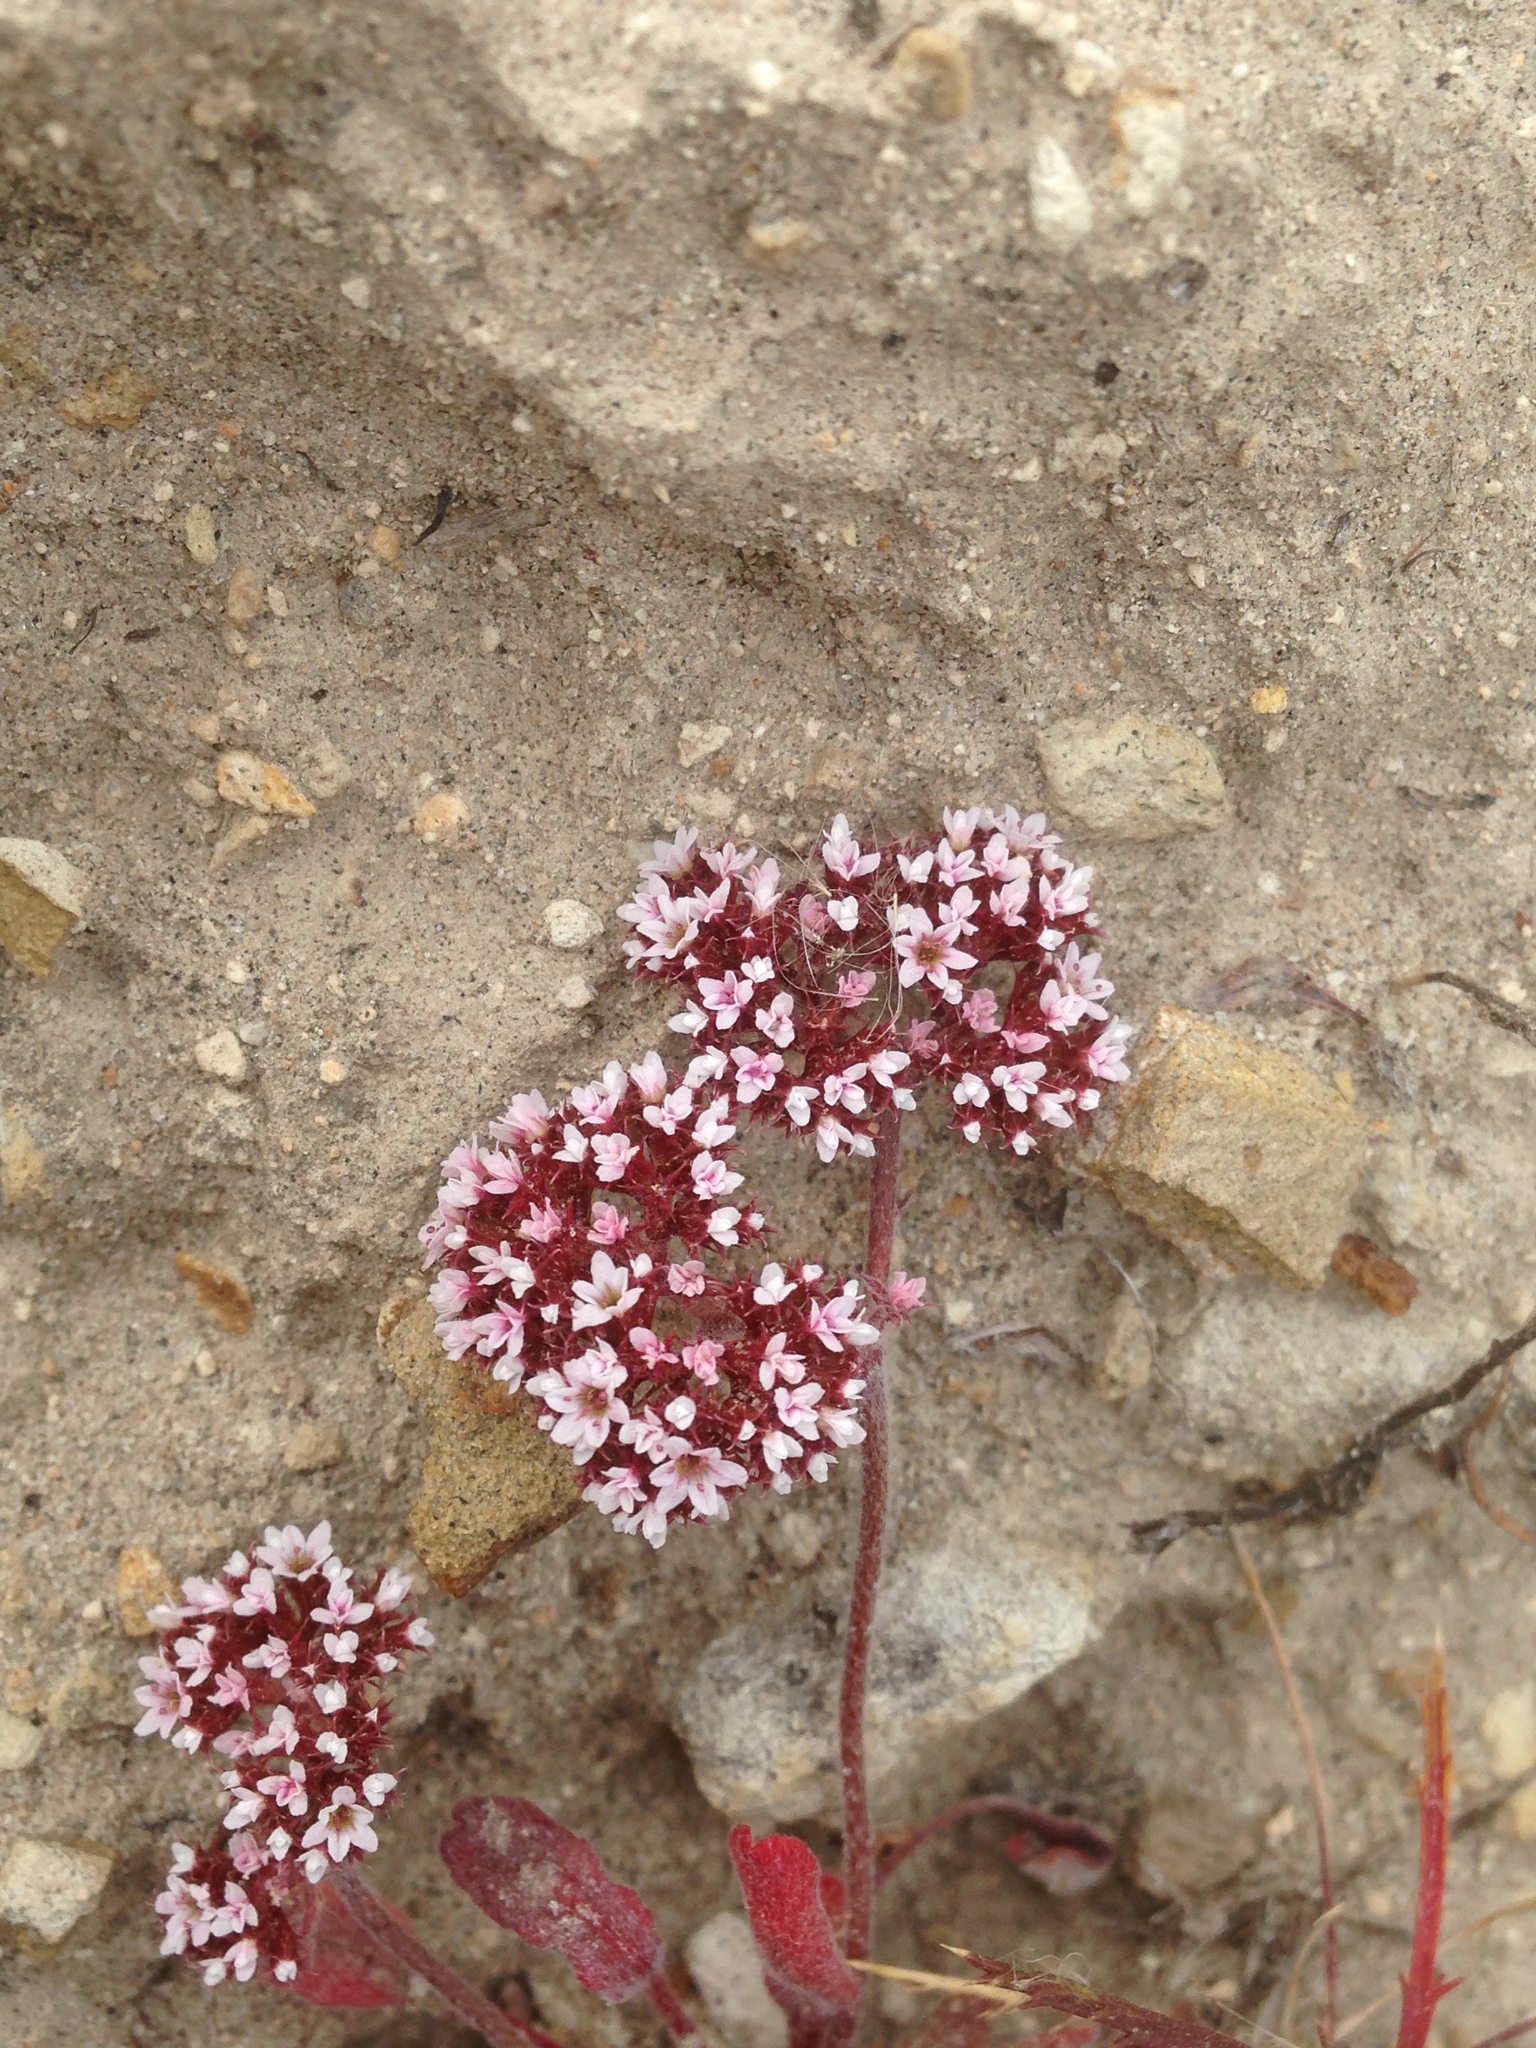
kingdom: Plantae
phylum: Tracheophyta
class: Magnoliopsida
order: Caryophyllales
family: Polygonaceae
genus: Chorizanthe
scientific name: Chorizanthe wheeleri
